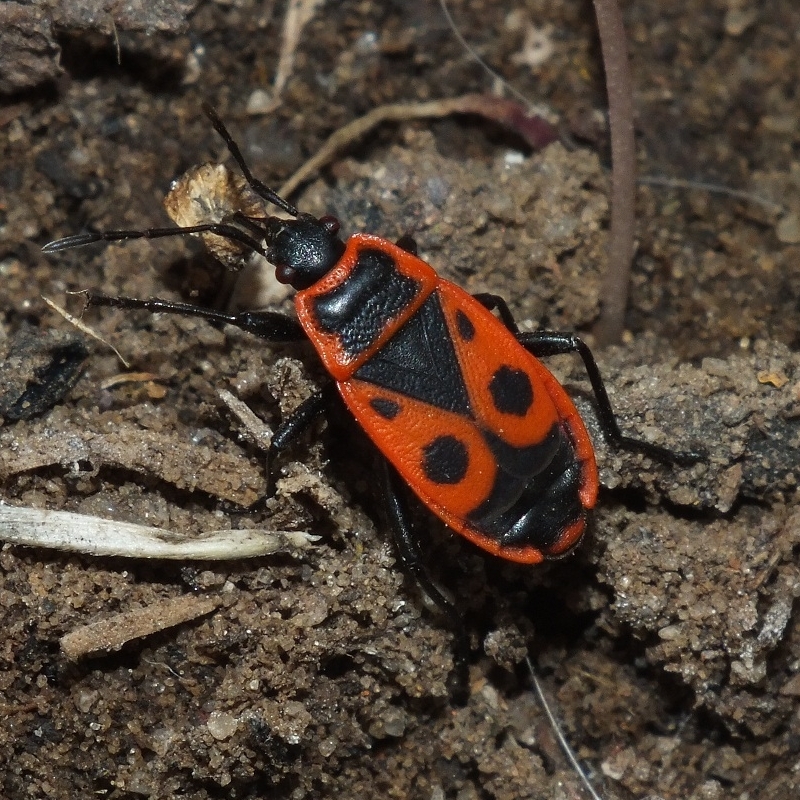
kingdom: Animalia
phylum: Arthropoda
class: Insecta
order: Hemiptera
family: Pyrrhocoridae
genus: Pyrrhocoris
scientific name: Pyrrhocoris apterus
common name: Firebug
